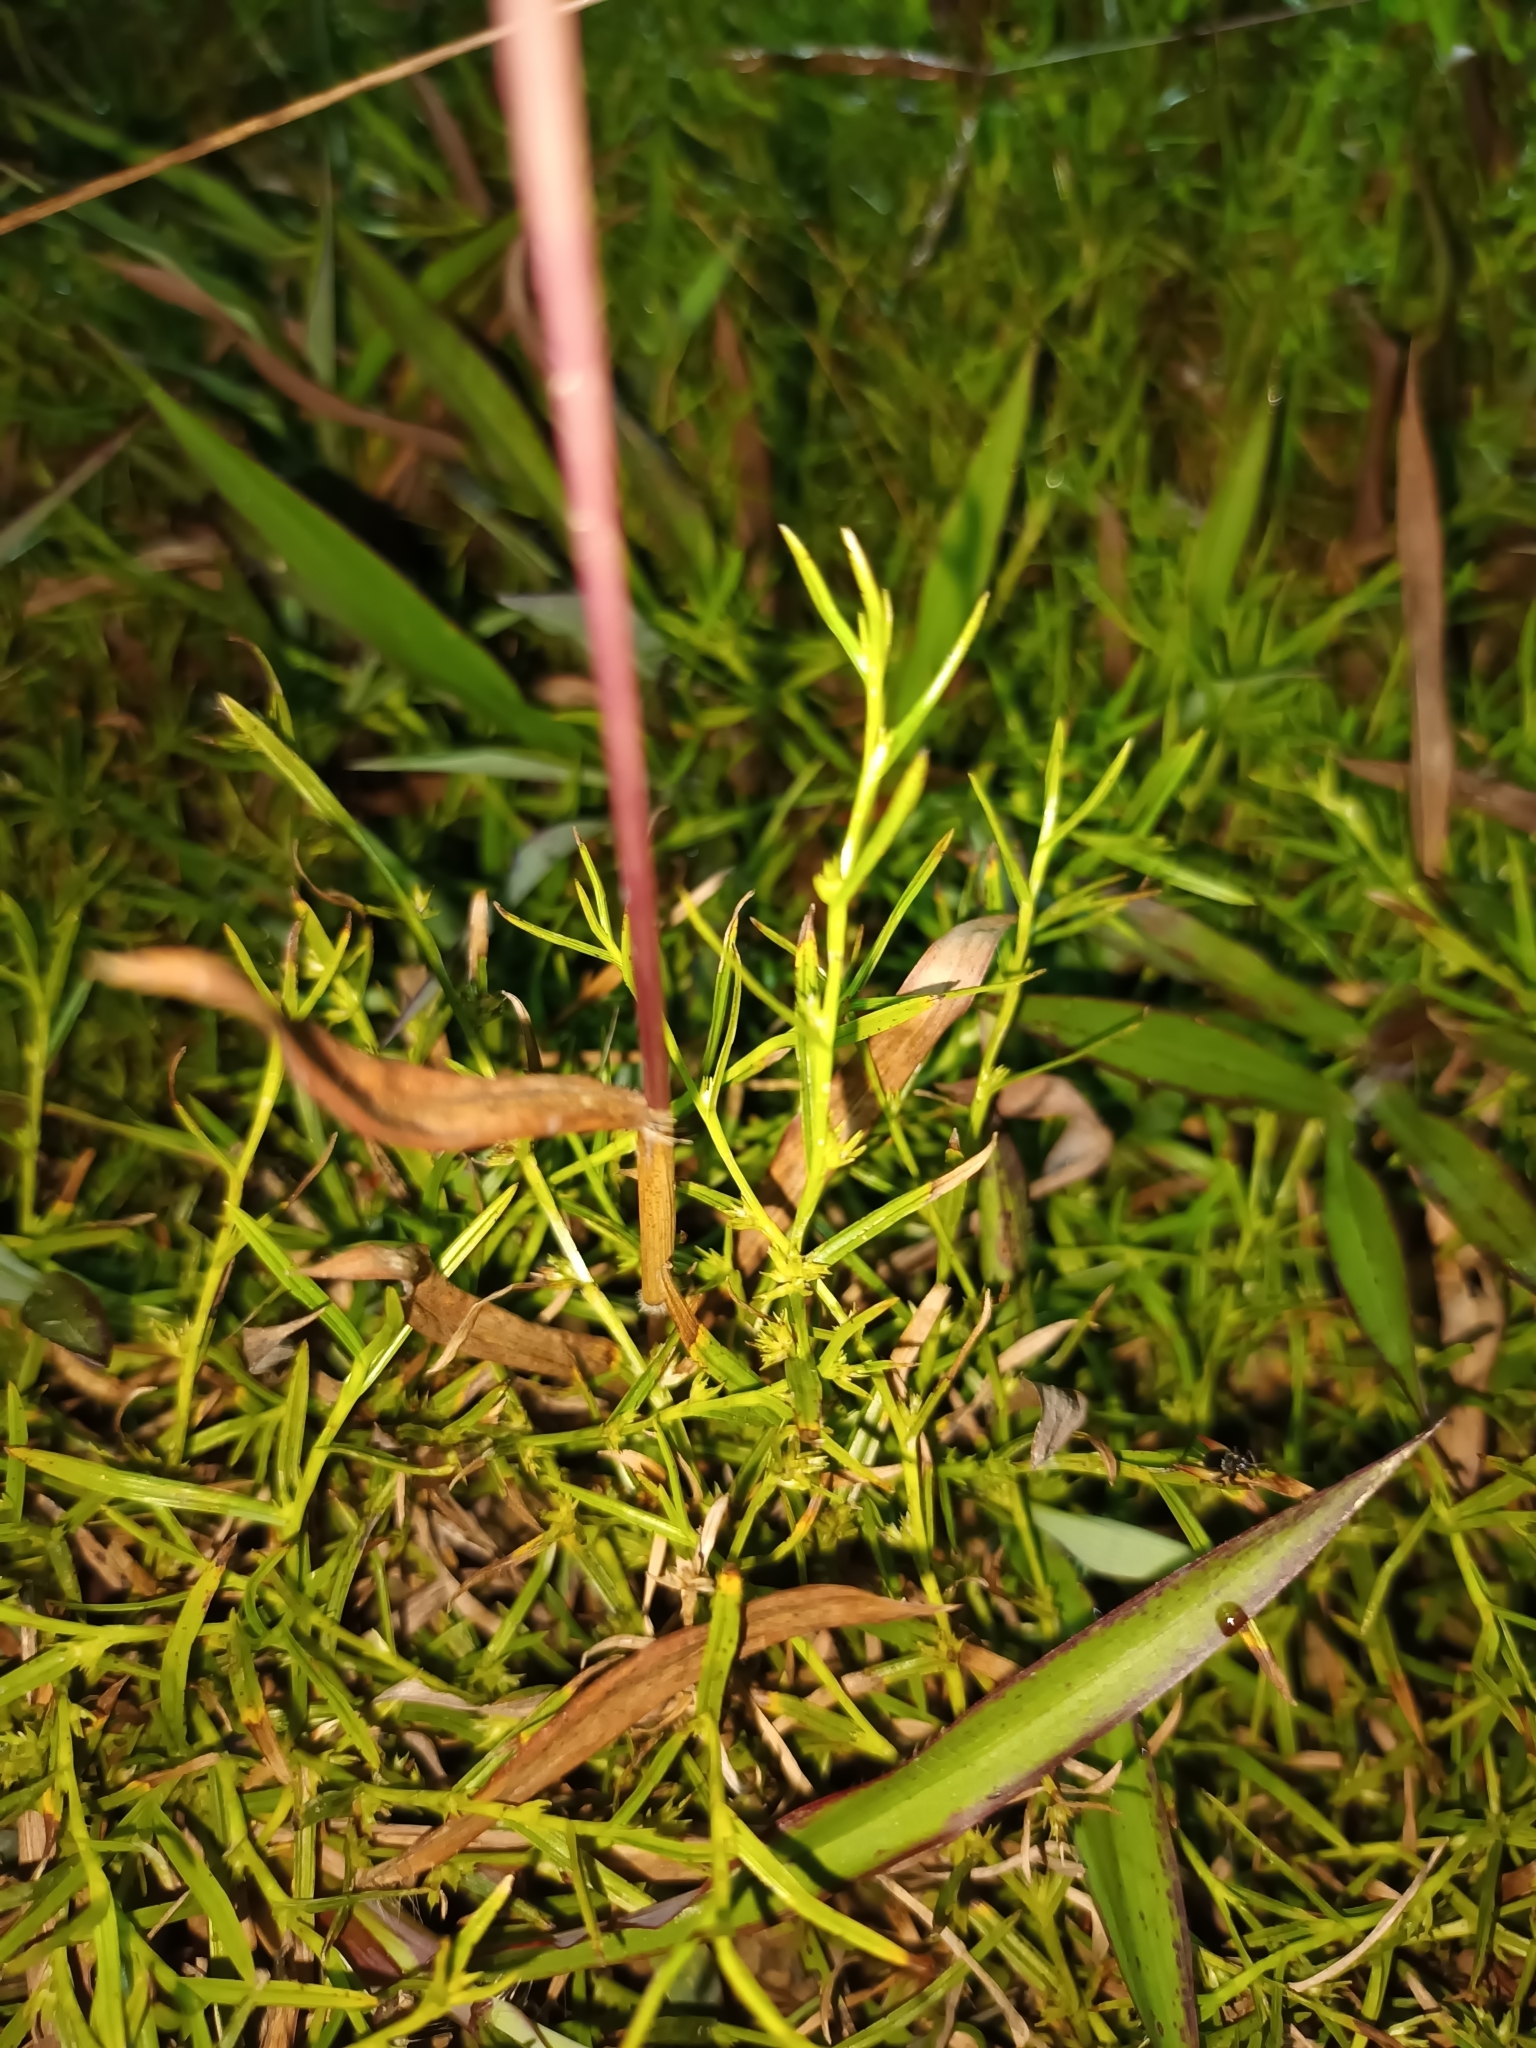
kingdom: Plantae
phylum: Tracheophyta
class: Liliopsida
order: Poales
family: Cyperaceae
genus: Diplacrum
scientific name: Diplacrum caricinum
